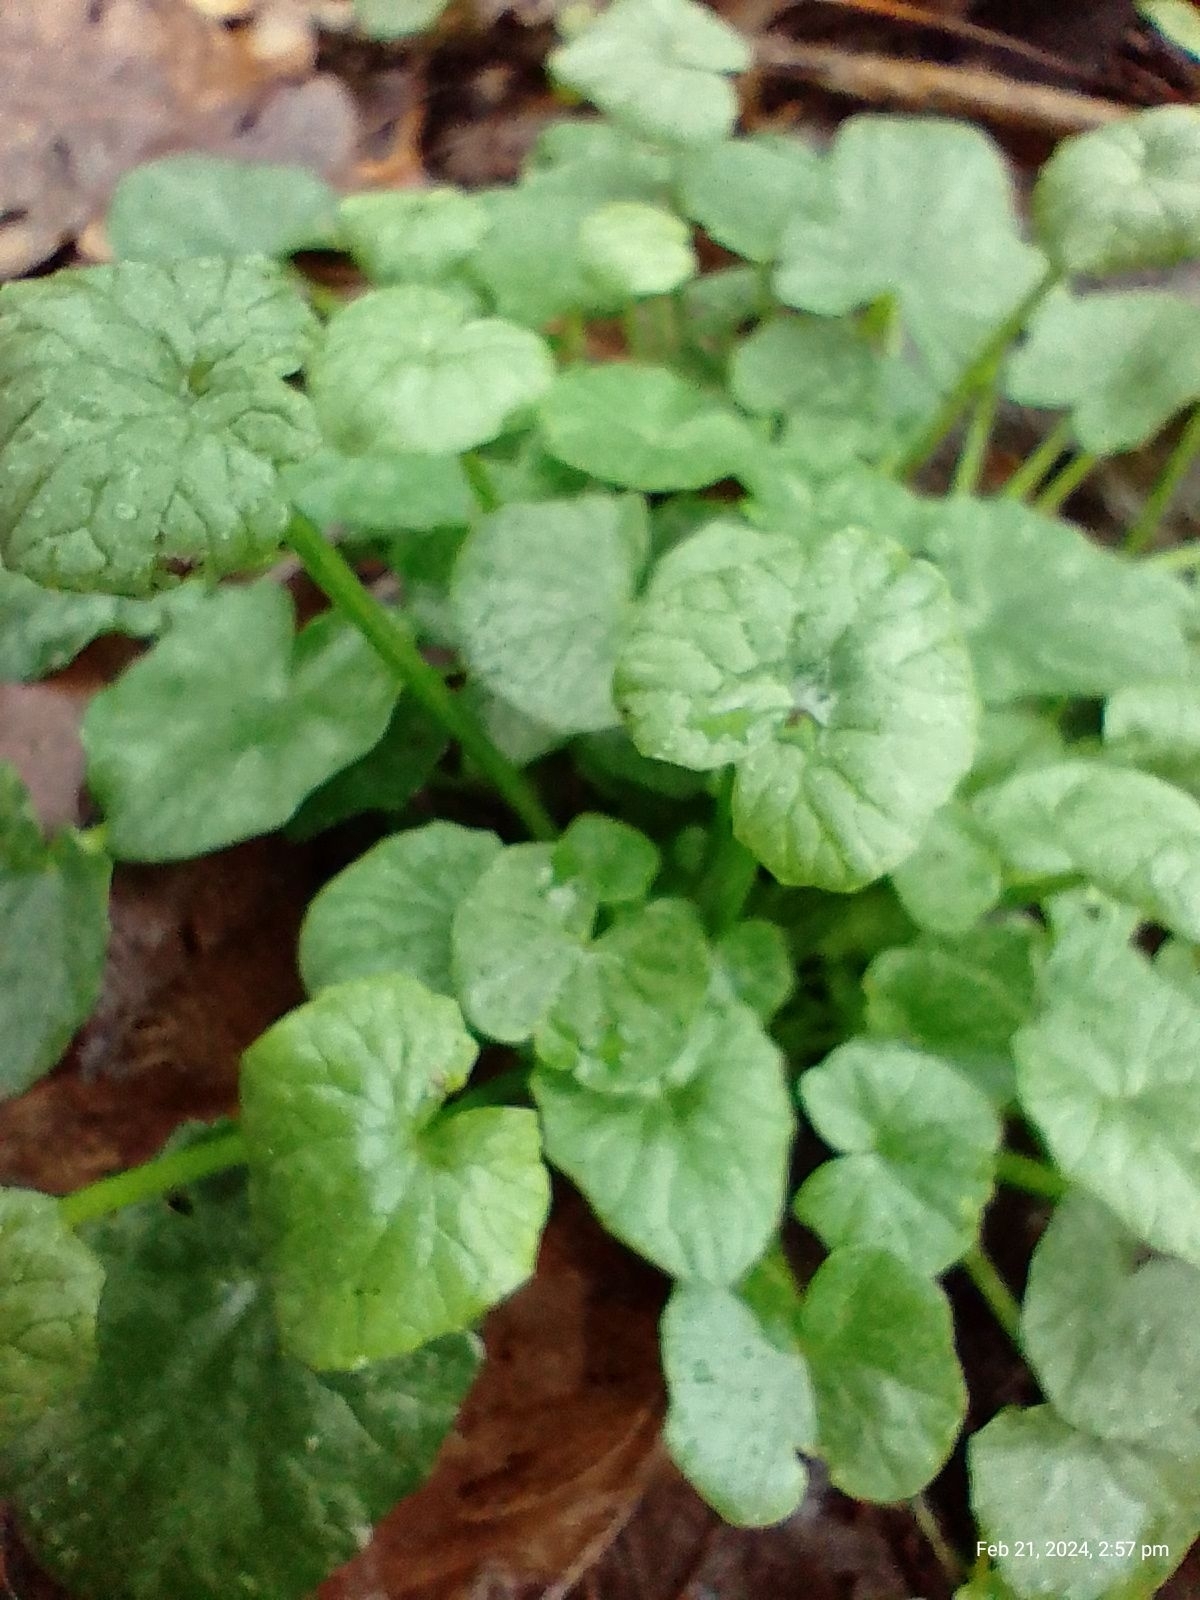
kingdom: Plantae
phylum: Tracheophyta
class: Magnoliopsida
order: Ranunculales
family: Ranunculaceae
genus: Ficaria
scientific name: Ficaria verna
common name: Lesser celandine
